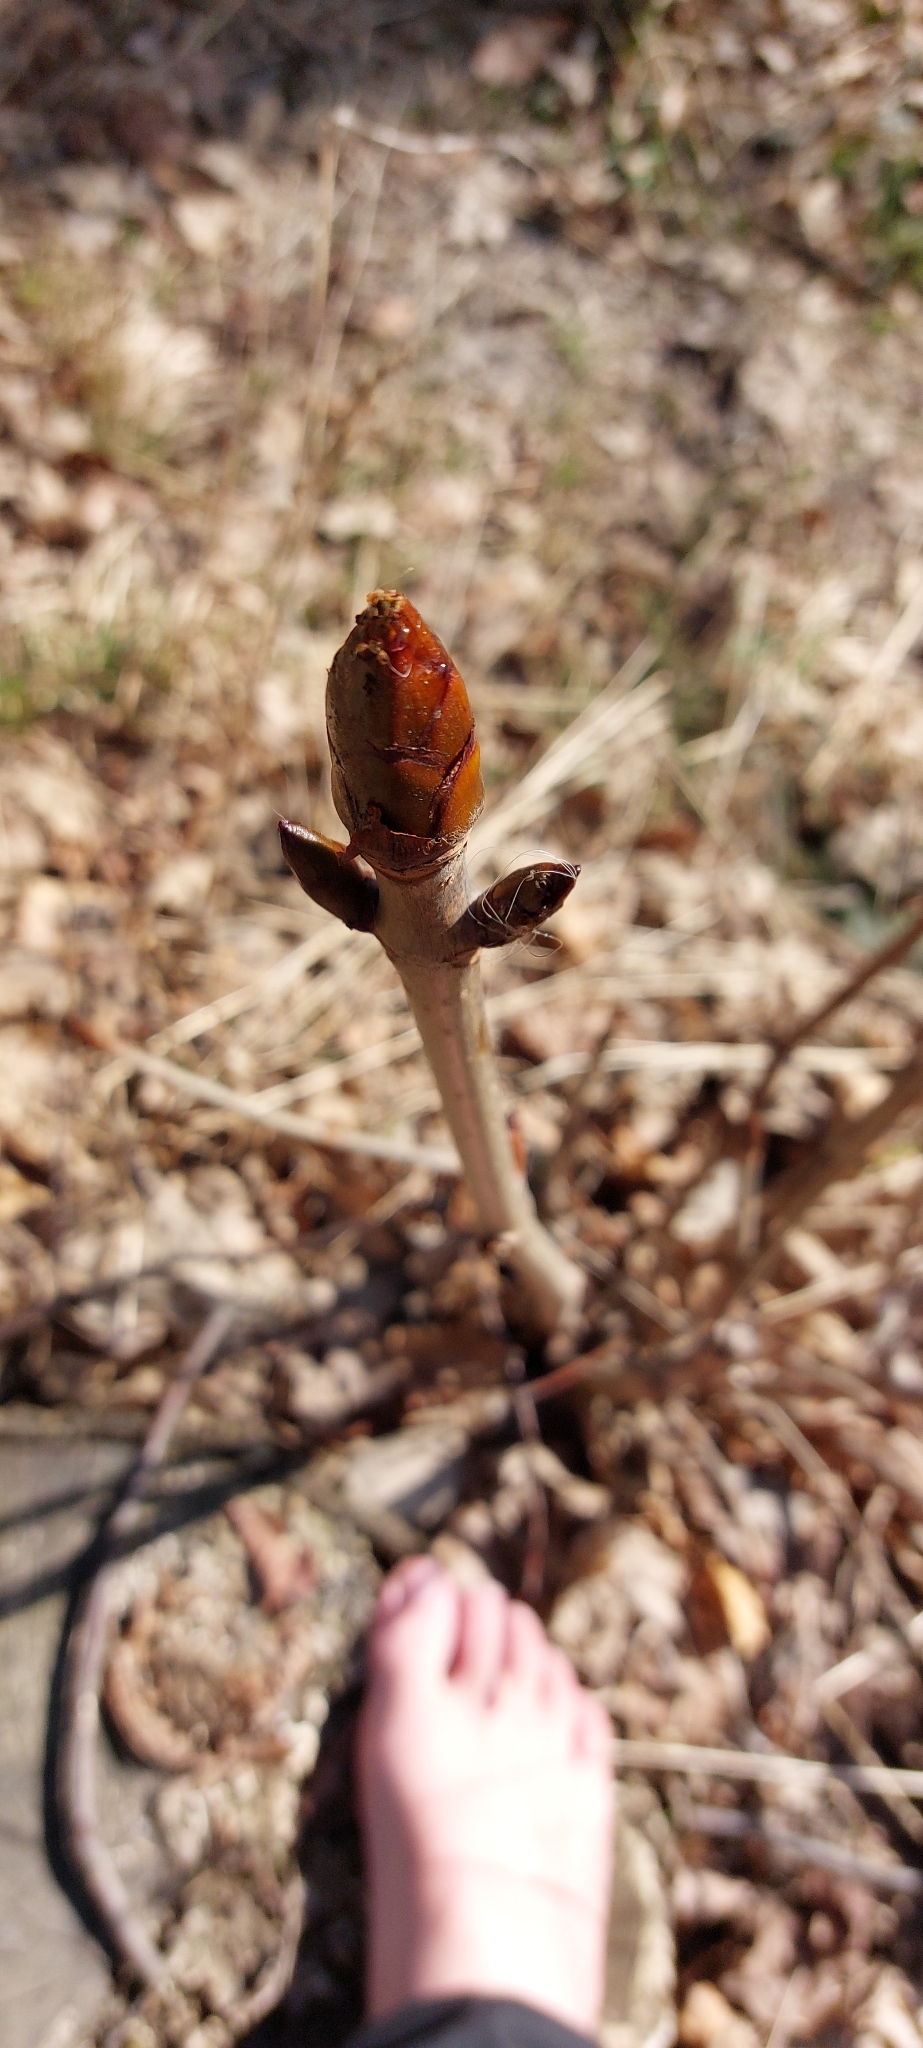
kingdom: Plantae
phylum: Tracheophyta
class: Magnoliopsida
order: Sapindales
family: Sapindaceae
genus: Aesculus
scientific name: Aesculus hippocastanum
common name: Horse-chestnut
